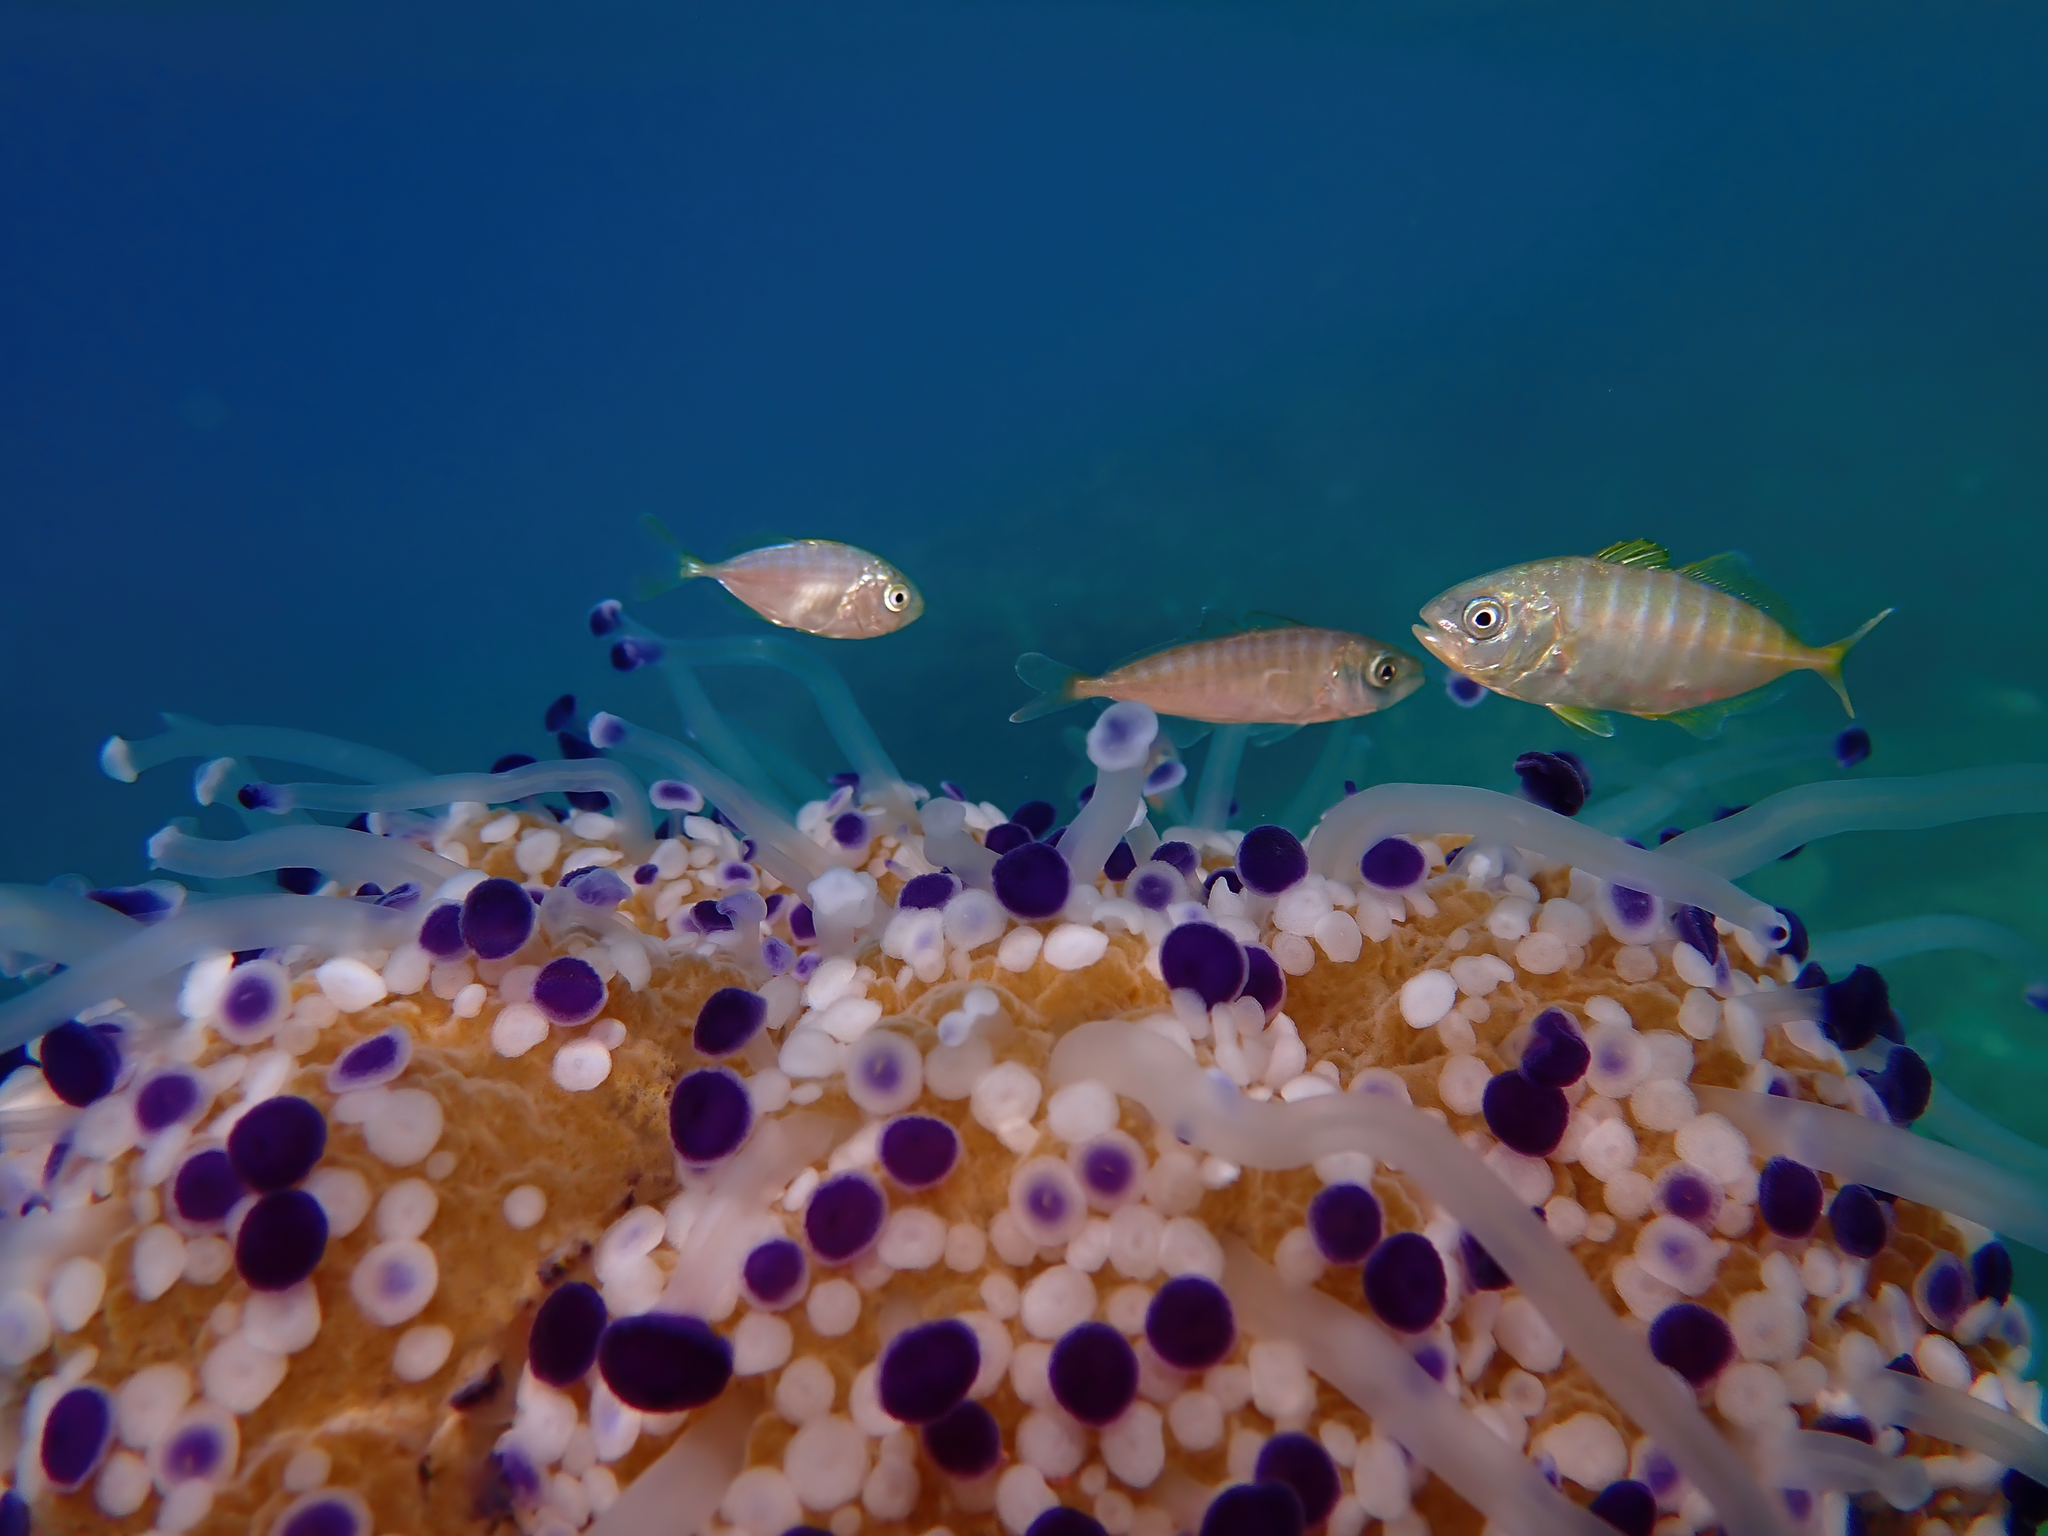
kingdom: Animalia
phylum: Chordata
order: Perciformes
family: Carangidae
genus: Caranx
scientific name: Caranx crysos
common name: Blue runner
